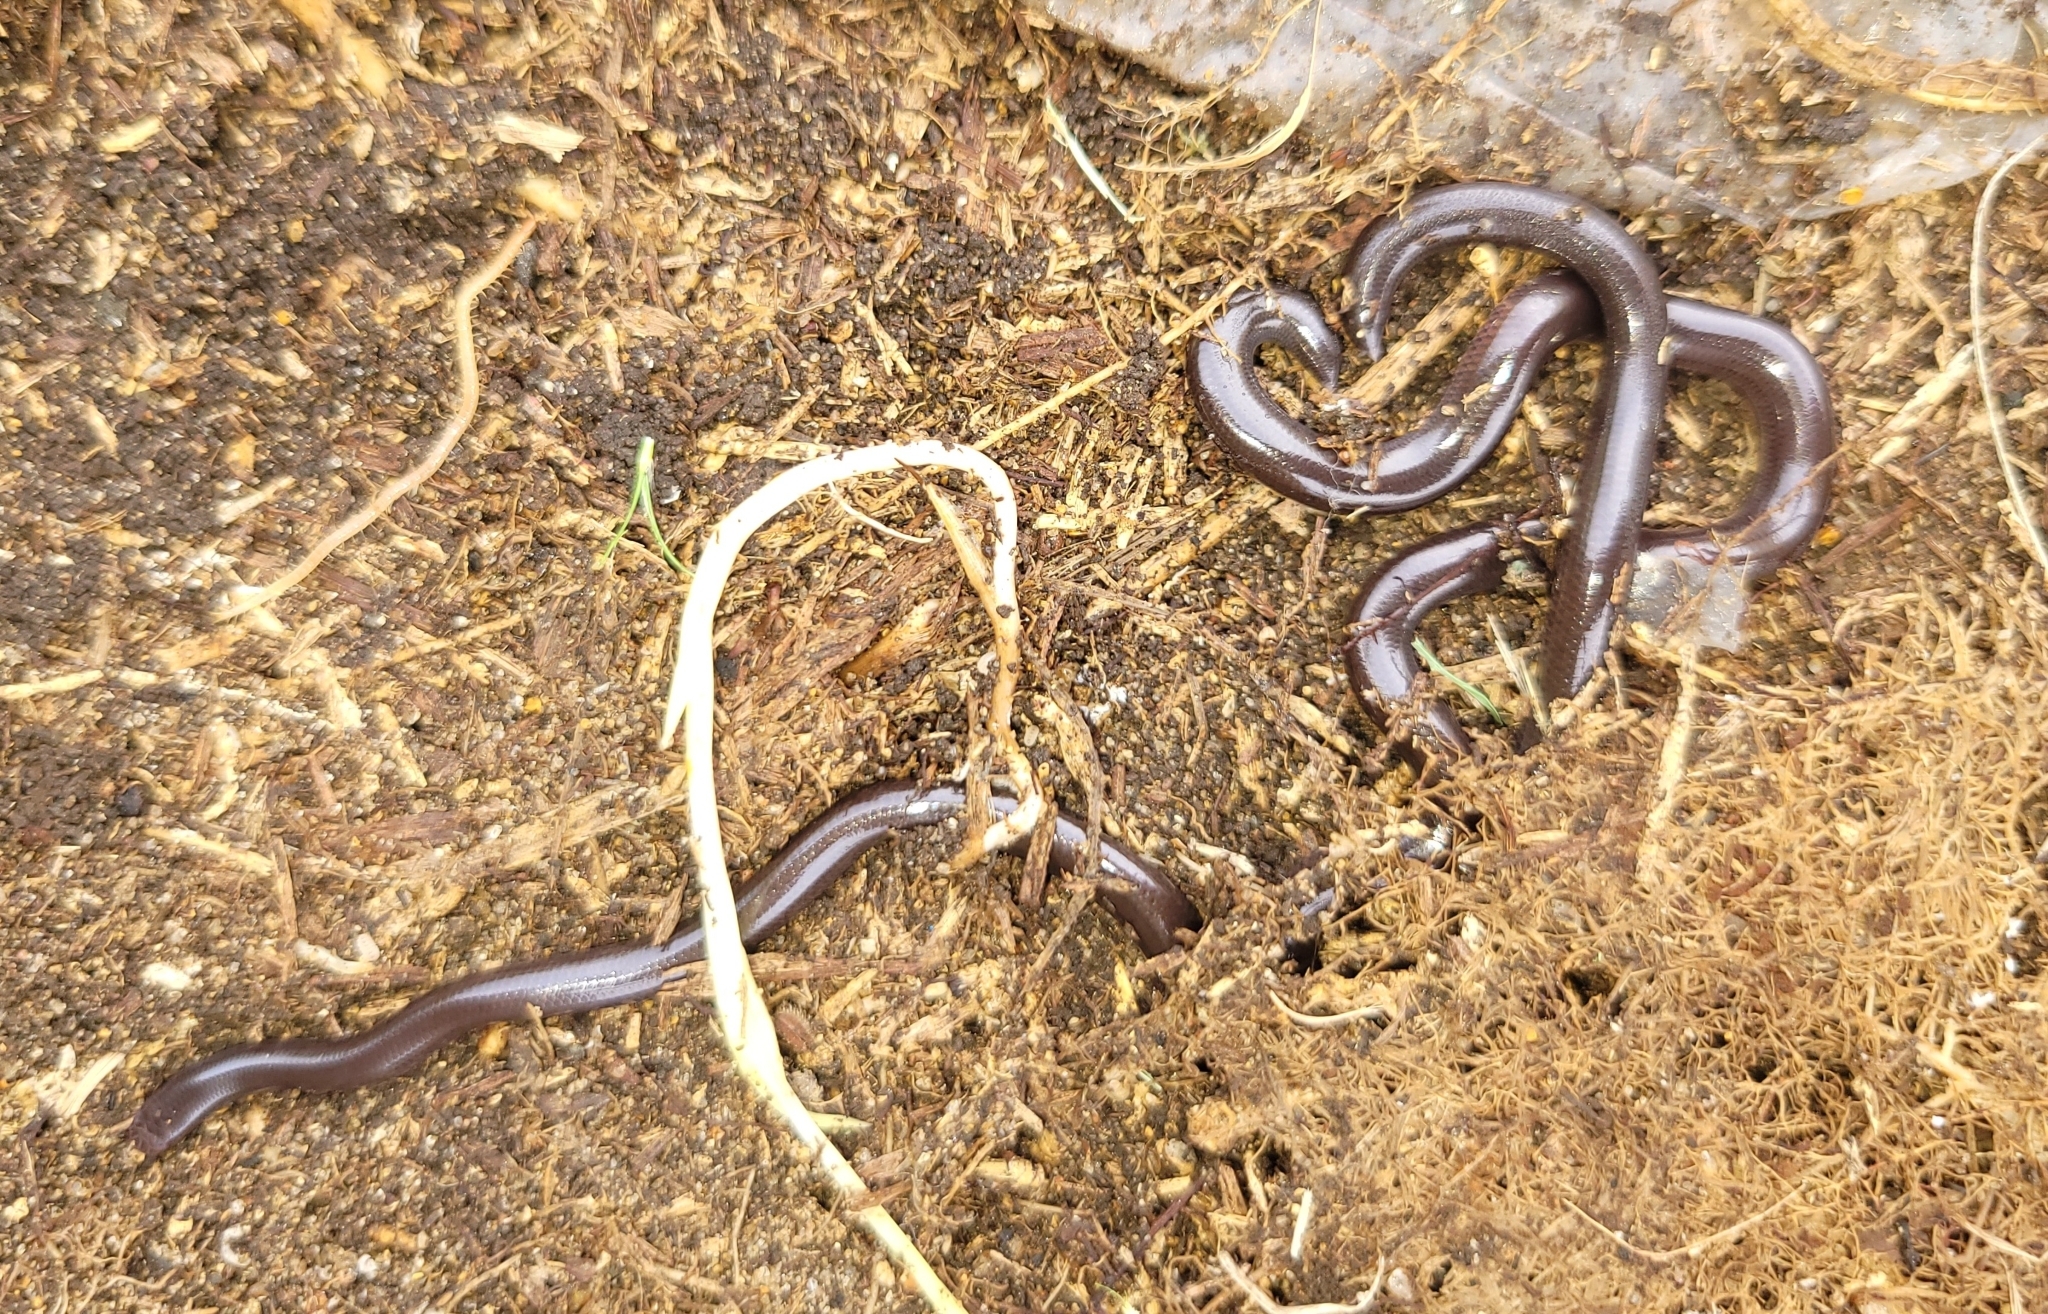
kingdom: Animalia
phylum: Chordata
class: Squamata
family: Typhlopidae
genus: Indotyphlops
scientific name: Indotyphlops braminus
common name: Brahminy blindsnake
